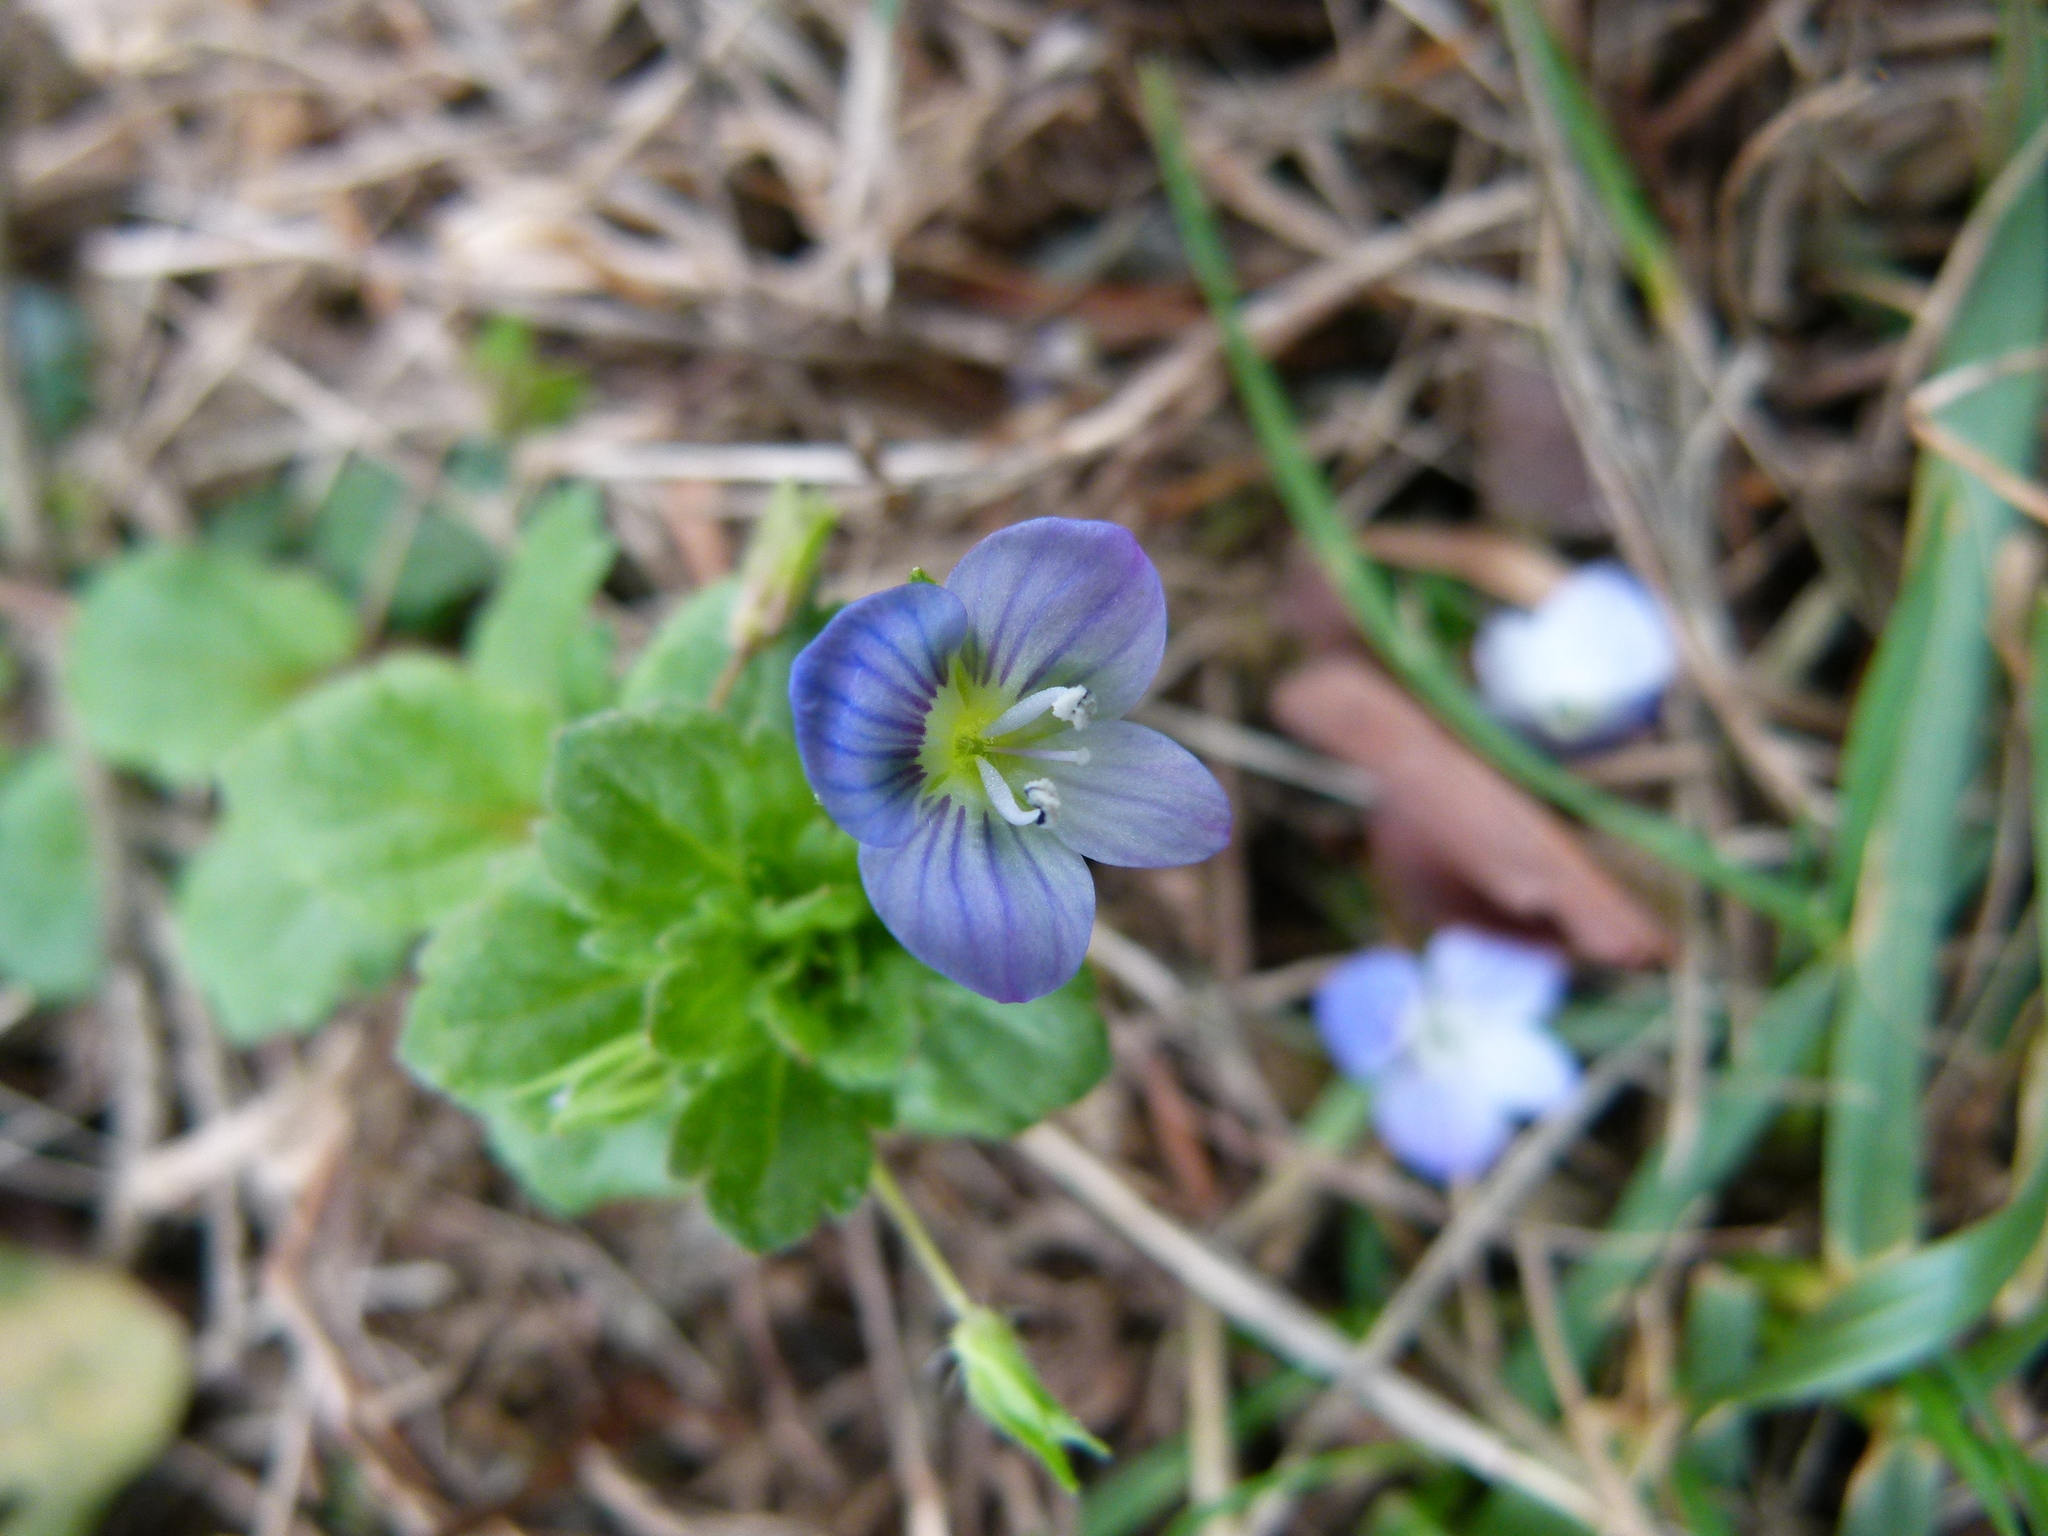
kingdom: Plantae
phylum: Tracheophyta
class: Magnoliopsida
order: Lamiales
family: Plantaginaceae
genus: Veronica
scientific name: Veronica persica
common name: Common field-speedwell
